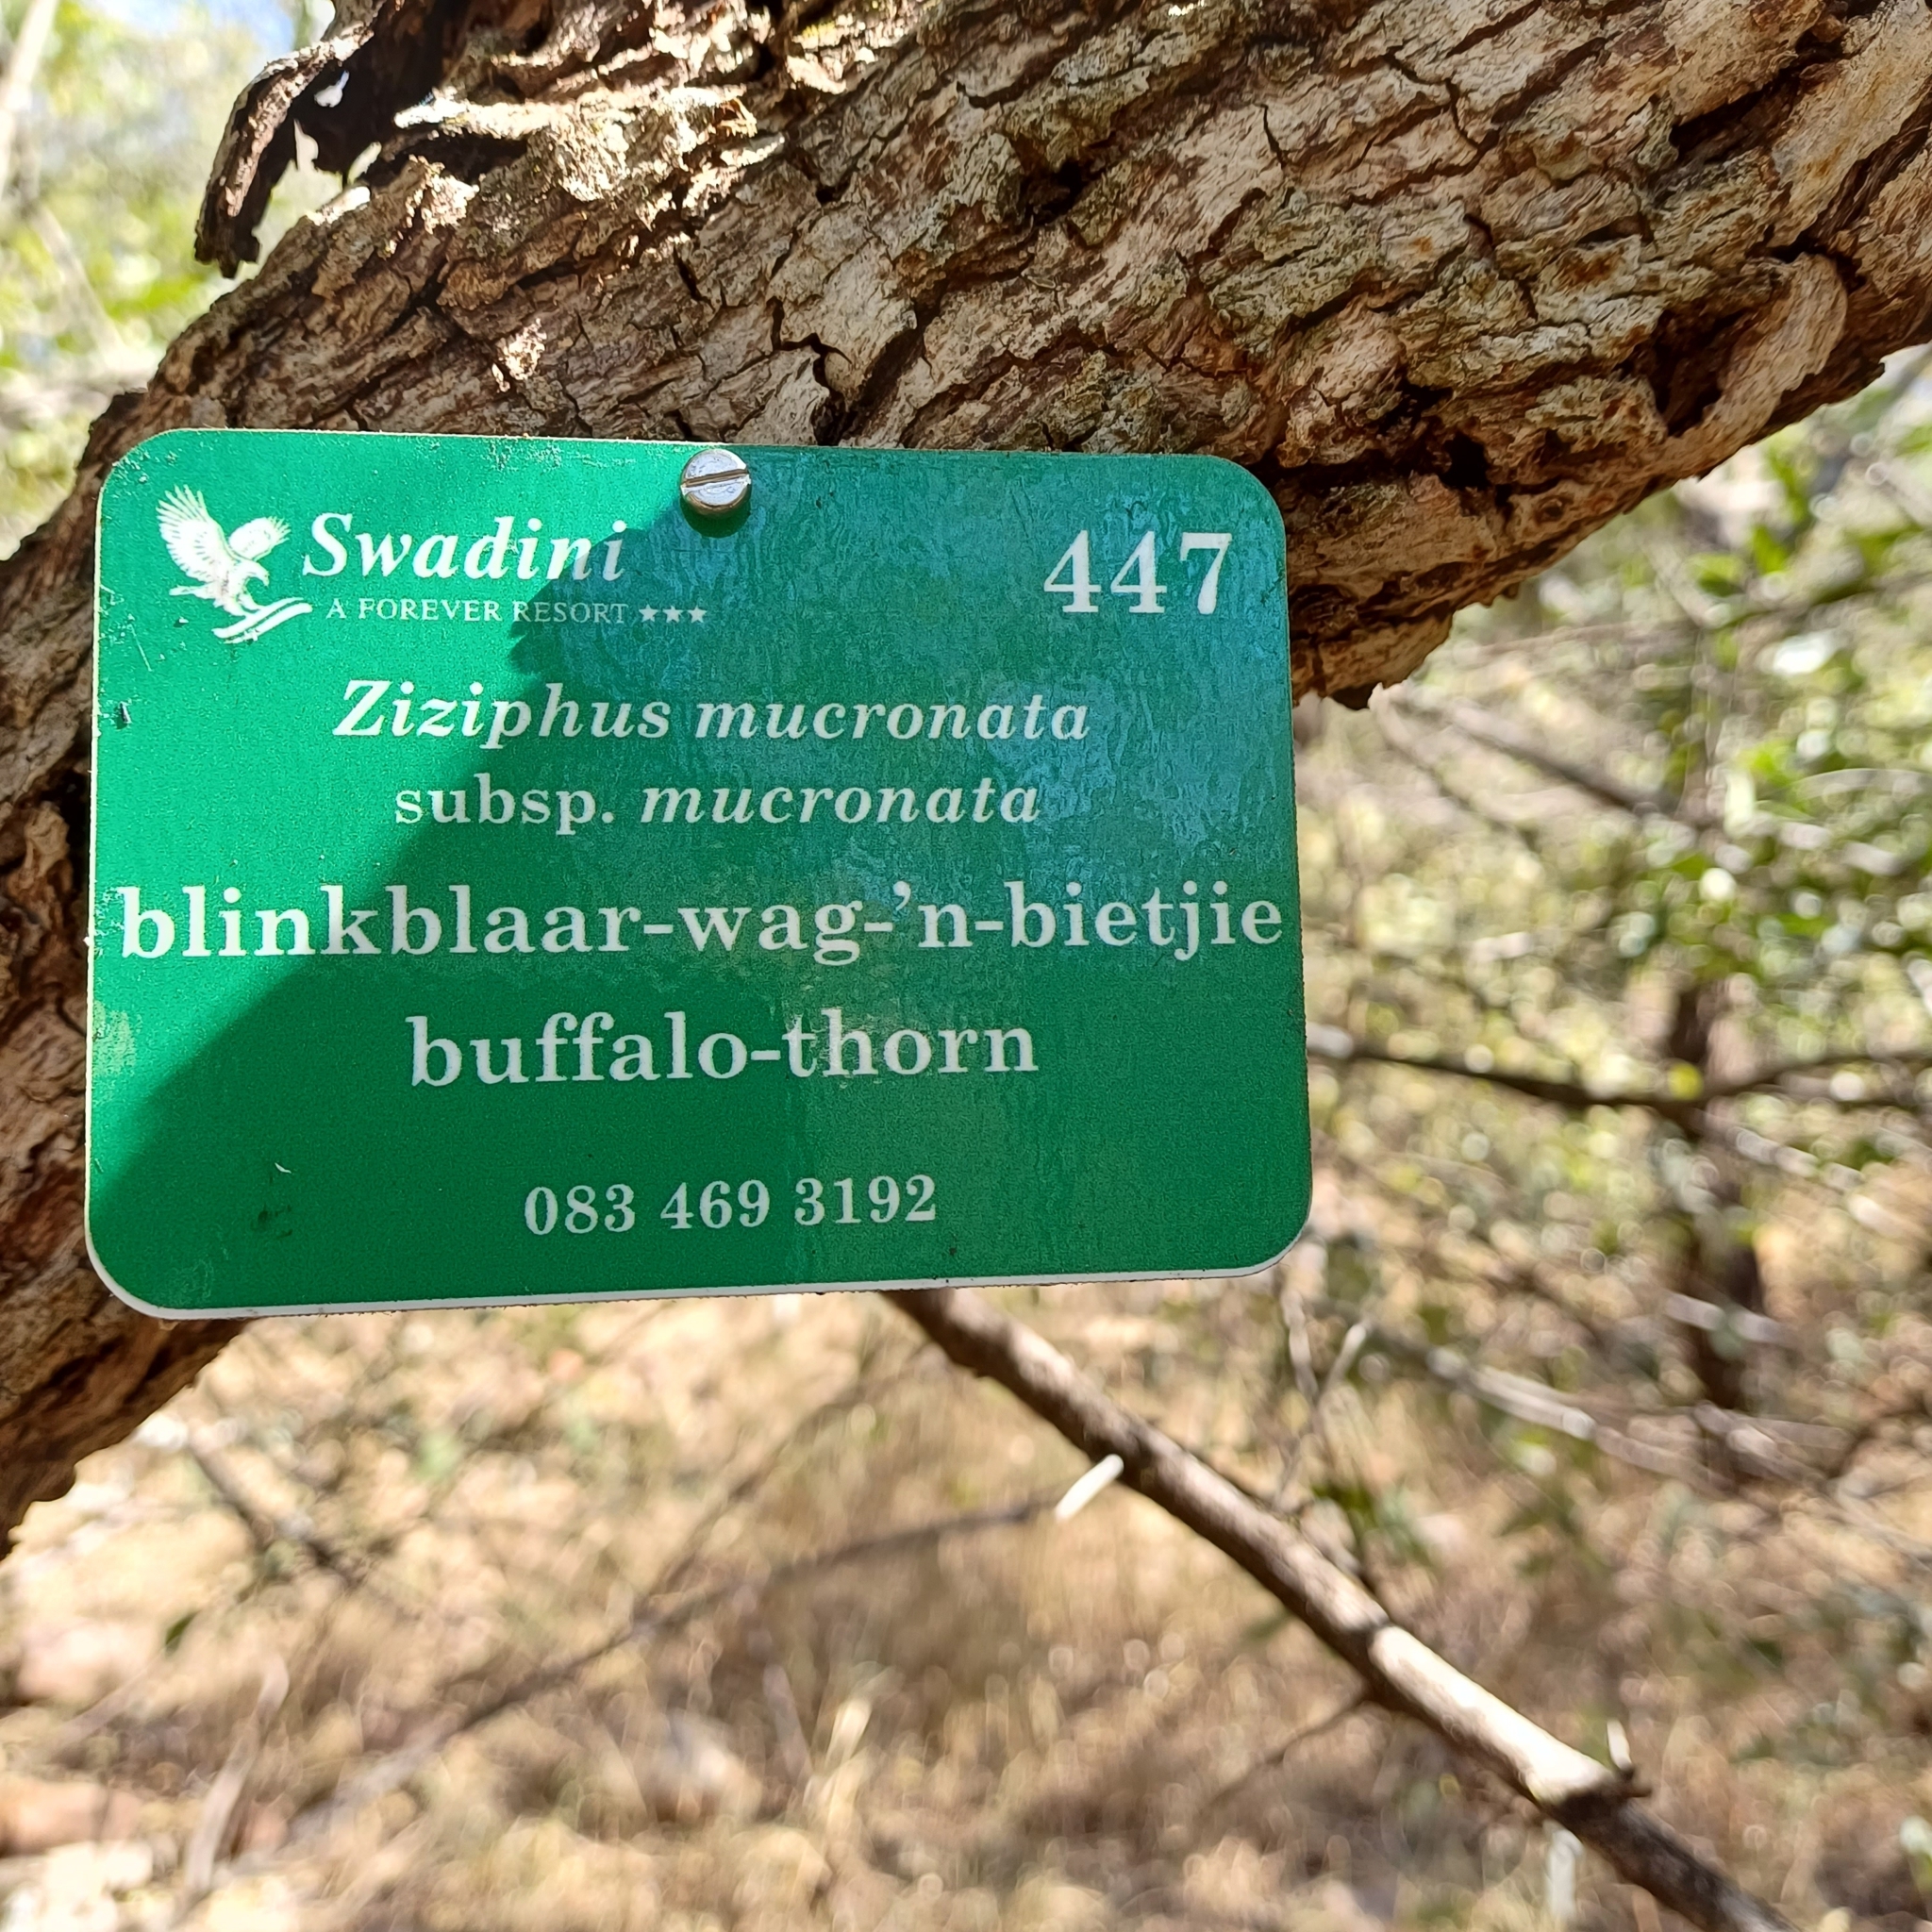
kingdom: Plantae
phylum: Tracheophyta
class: Magnoliopsida
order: Rosales
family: Rhamnaceae
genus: Ziziphus
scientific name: Ziziphus mucronata
